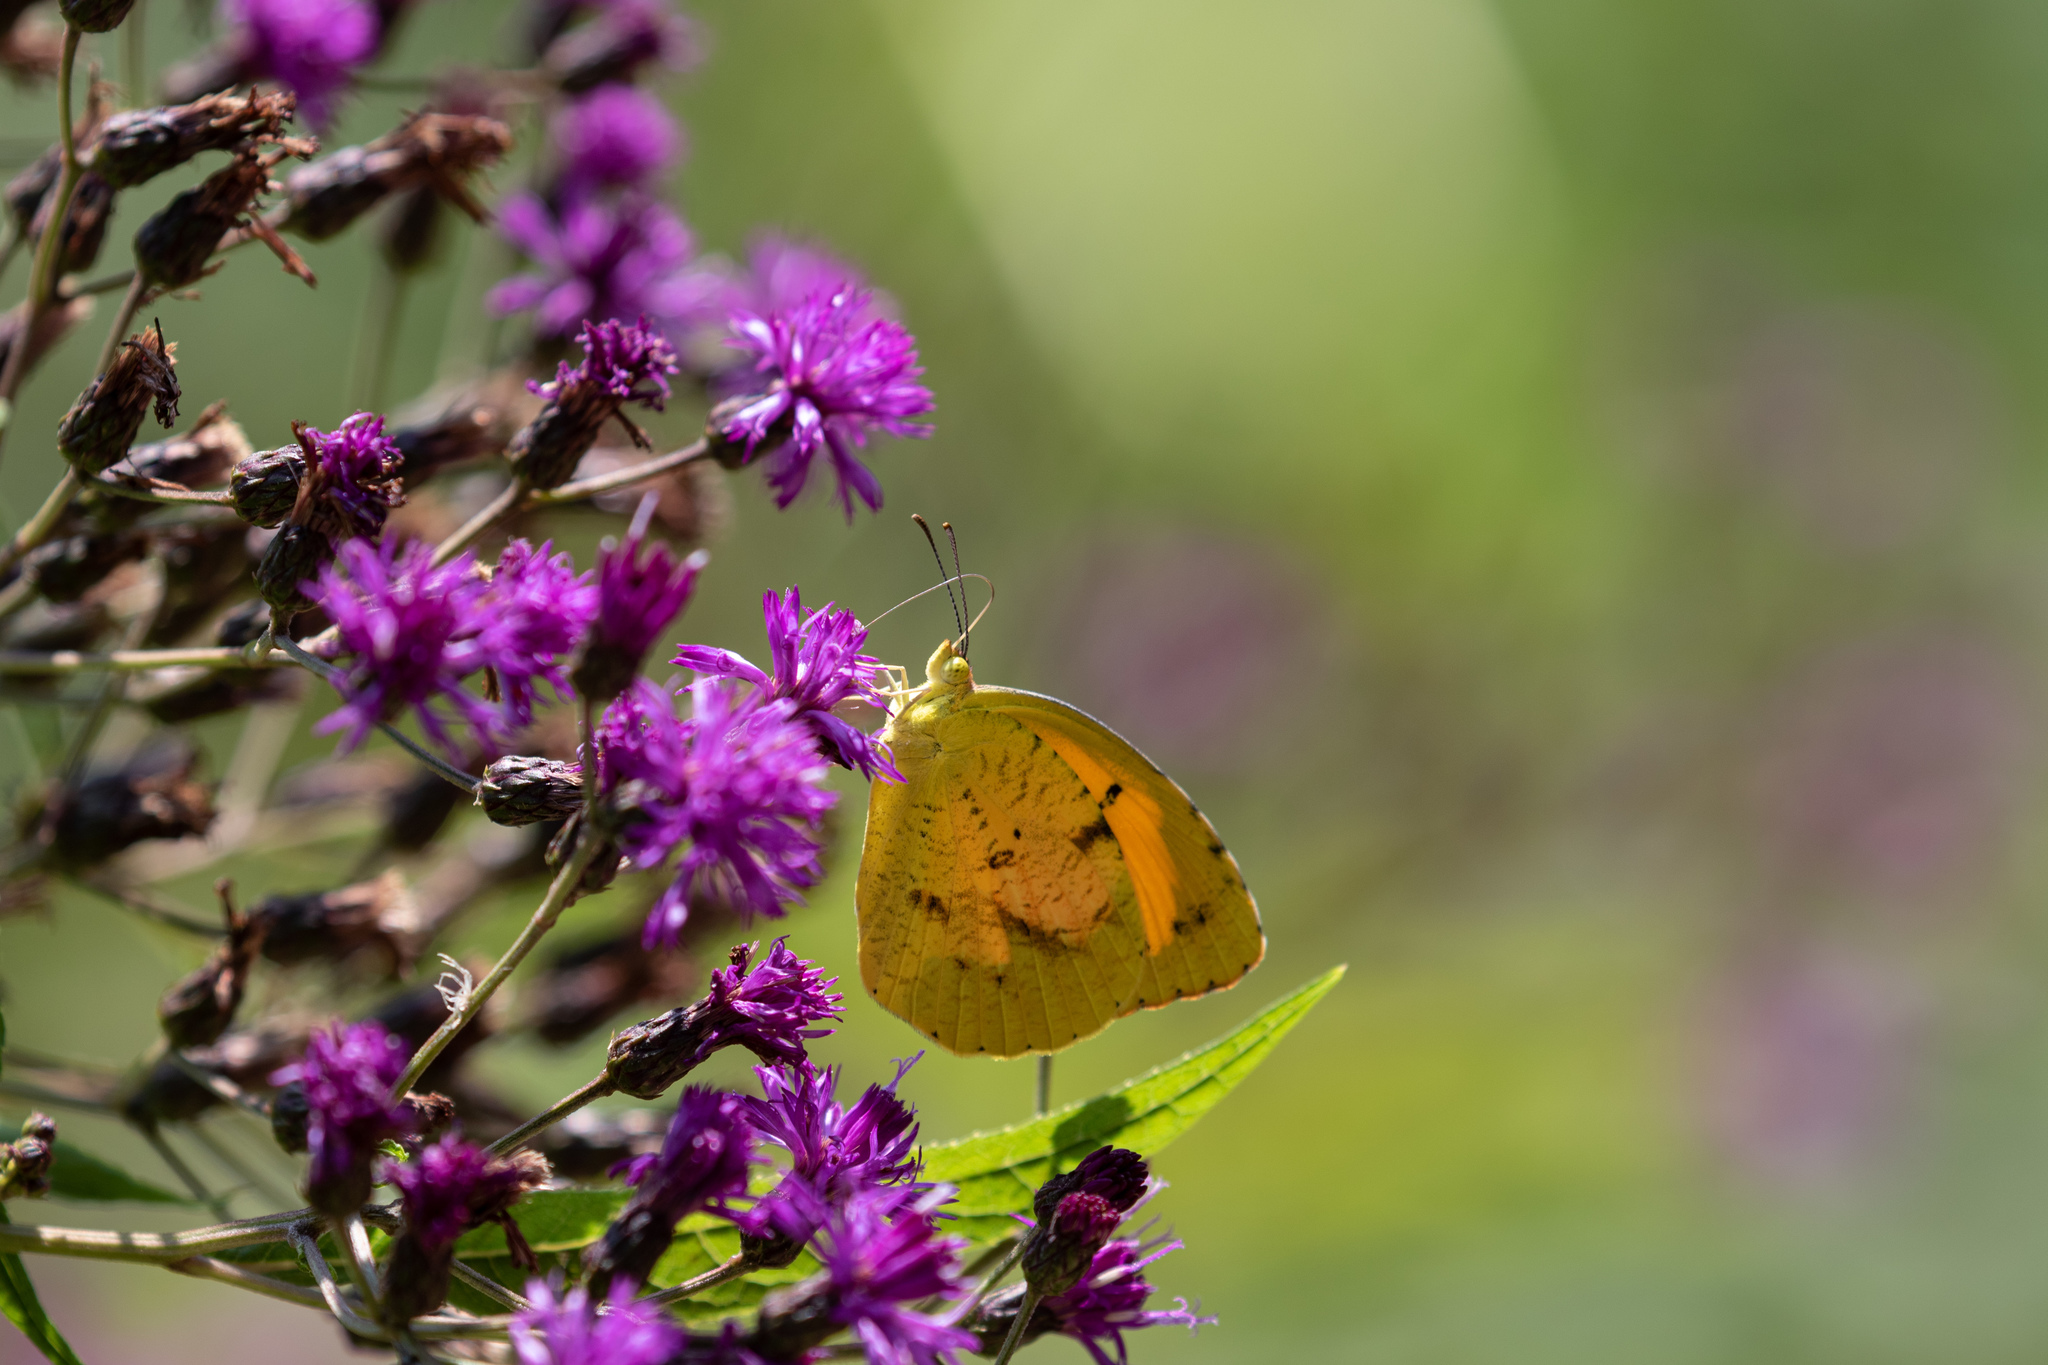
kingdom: Animalia
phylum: Arthropoda
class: Insecta
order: Lepidoptera
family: Pieridae
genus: Abaeis
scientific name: Abaeis nicippe
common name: Sleepy orange
